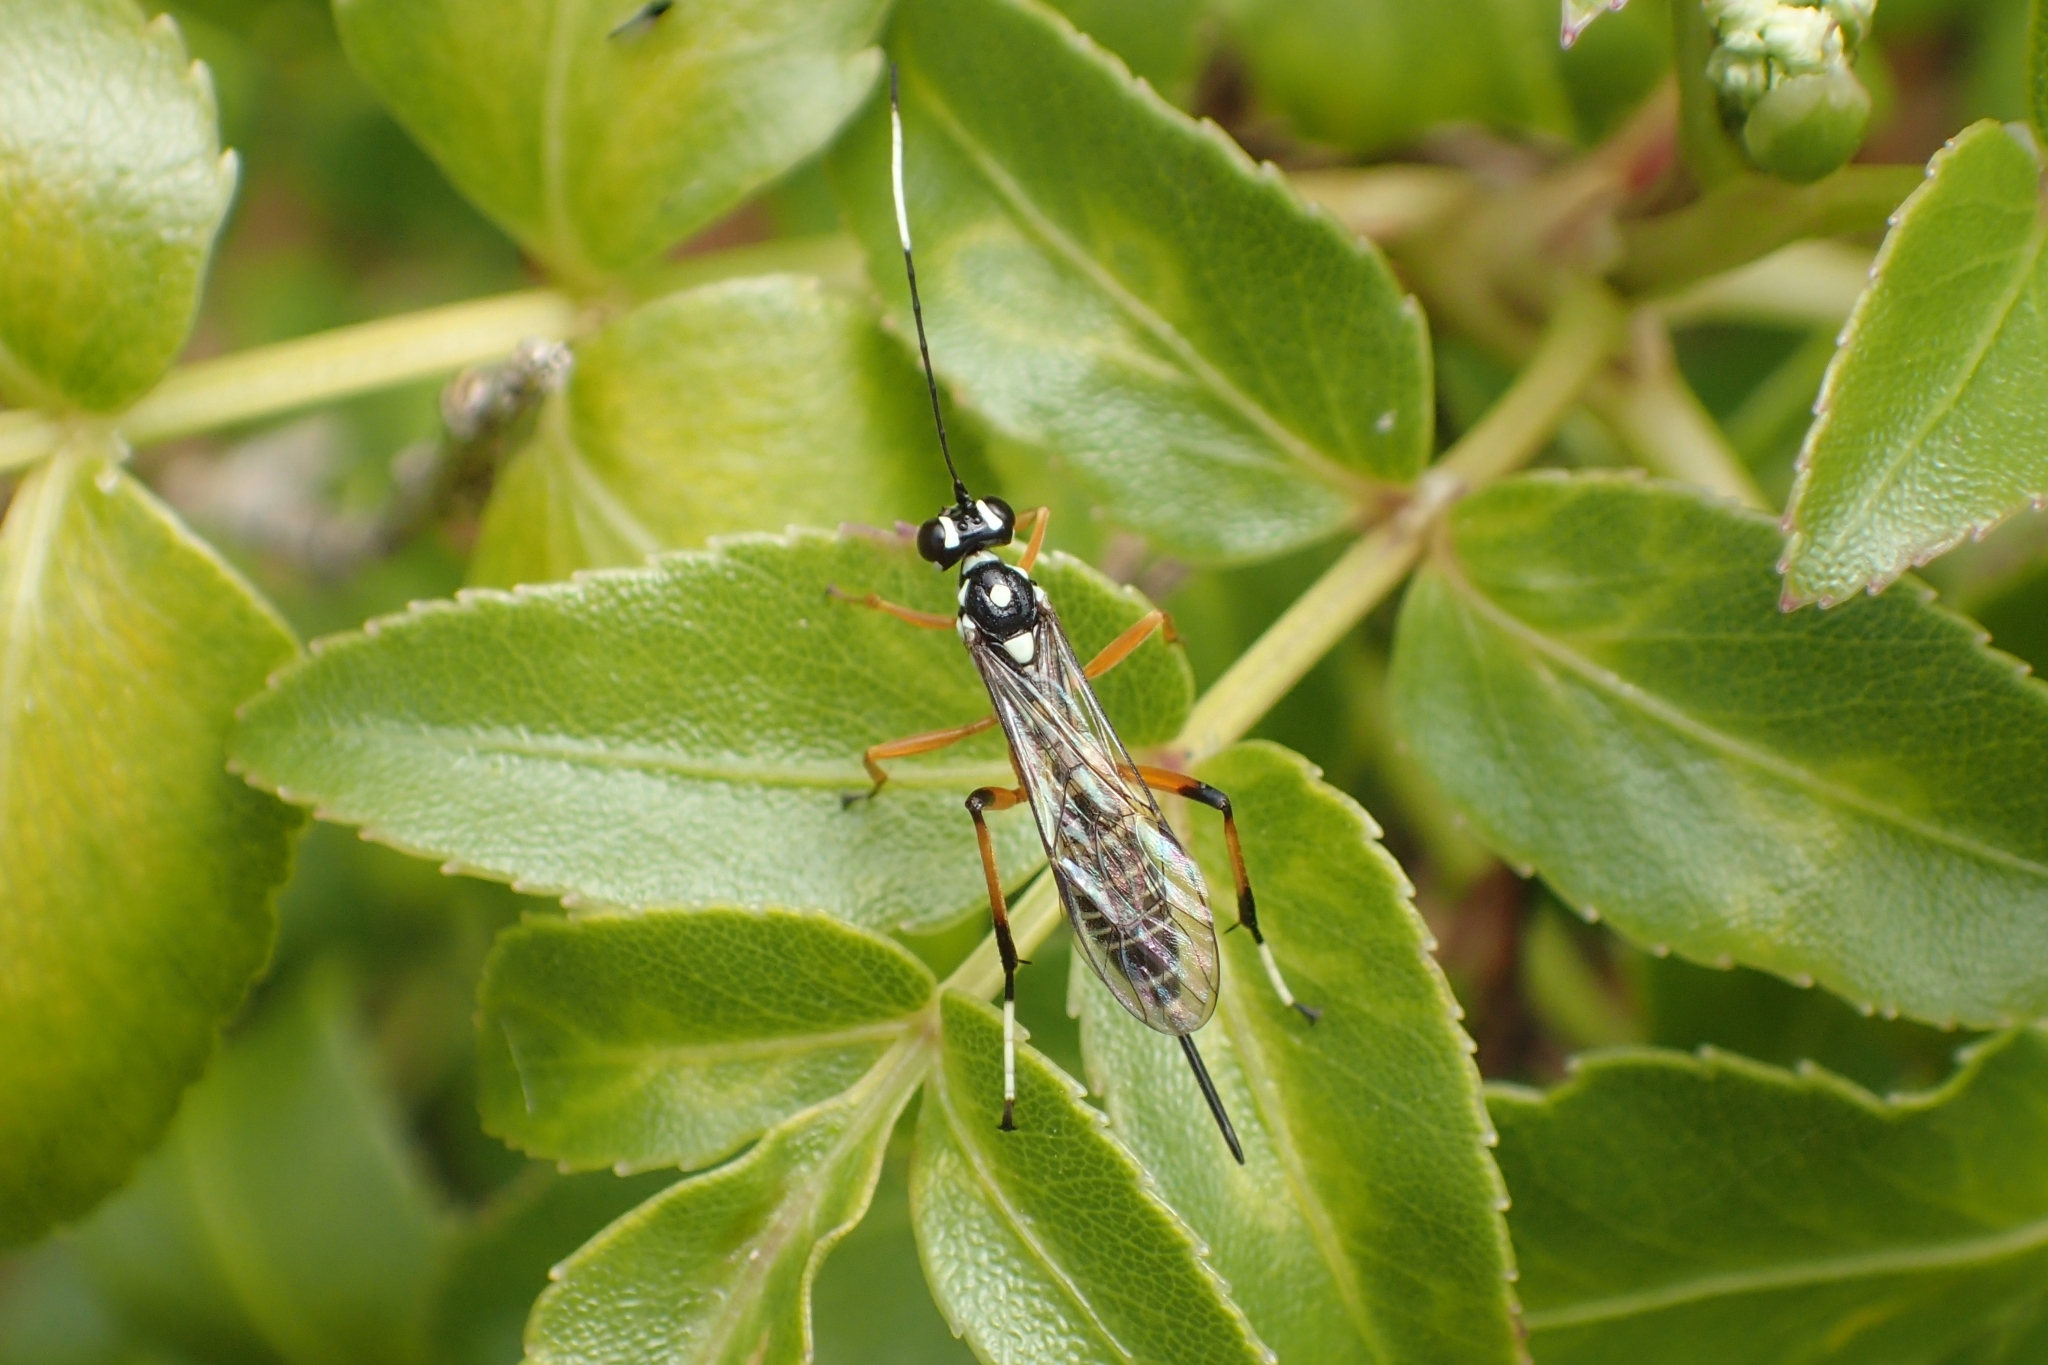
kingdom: Animalia
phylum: Arthropoda
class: Insecta
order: Hymenoptera
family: Ichneumonidae
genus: Xanthocryptus
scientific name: Xanthocryptus novozealandicus
